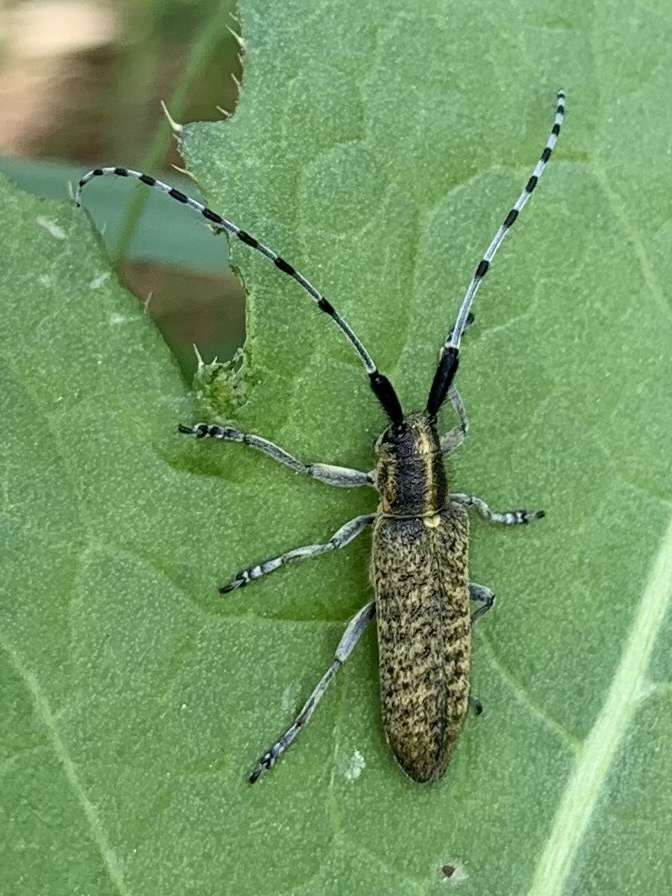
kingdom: Animalia
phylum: Arthropoda
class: Insecta
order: Coleoptera
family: Cerambycidae
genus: Agapanthia
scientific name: Agapanthia villosoviridescens
